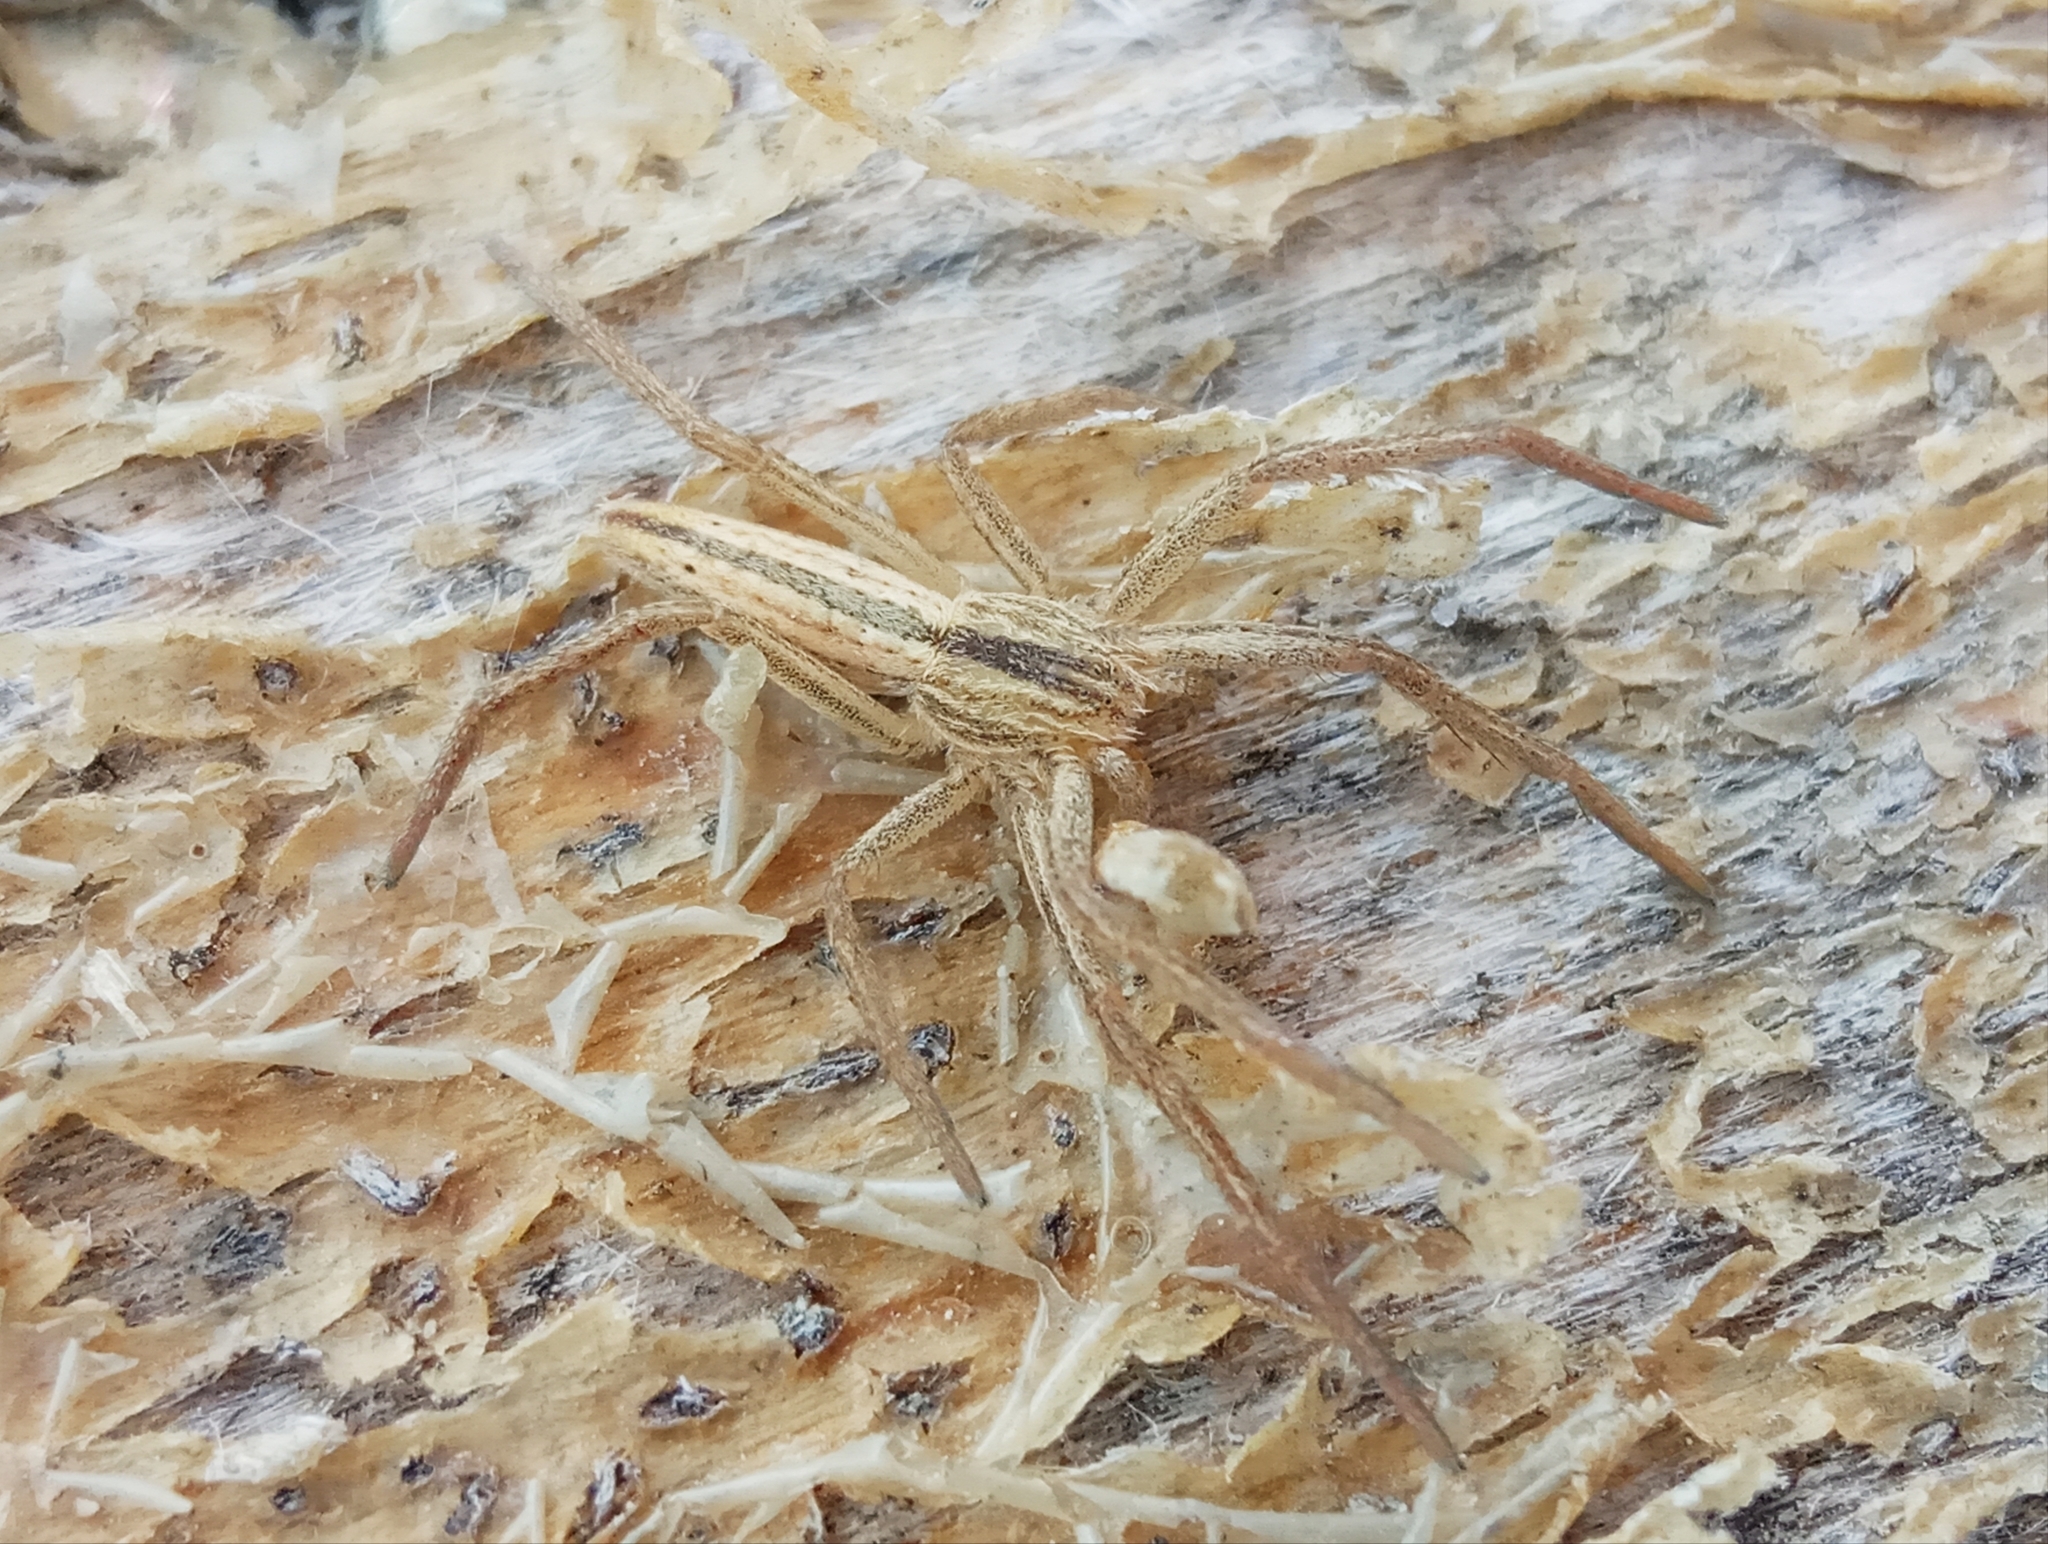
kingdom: Animalia
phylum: Arthropoda
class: Arachnida
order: Araneae
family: Philodromidae
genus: Tibellus
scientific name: Tibellus
